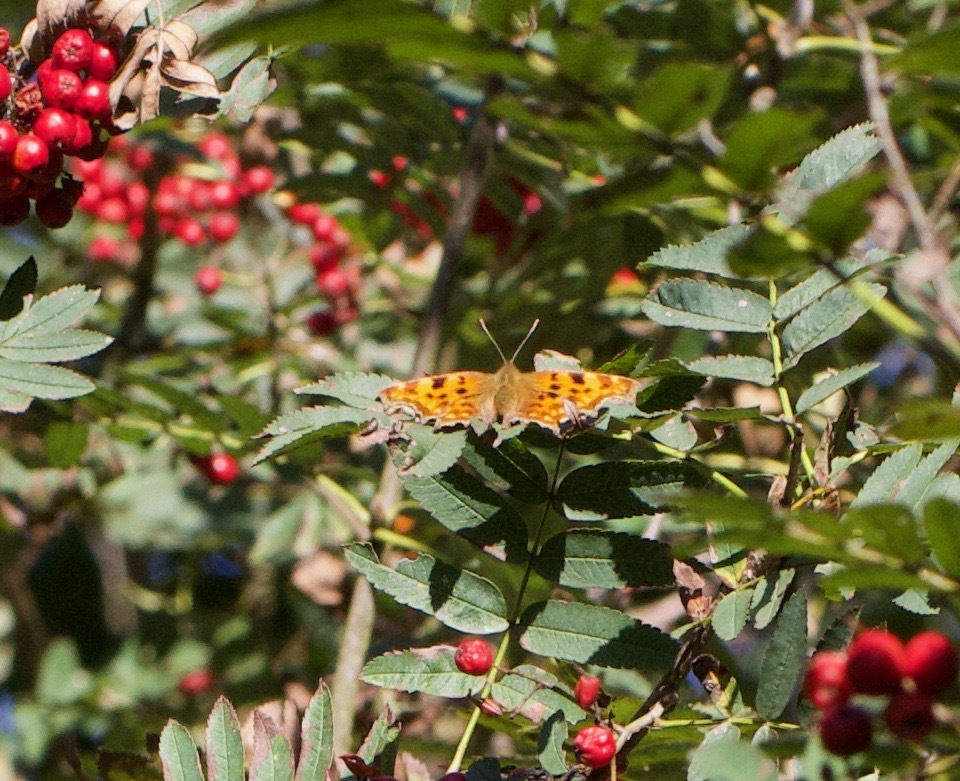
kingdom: Animalia
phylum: Arthropoda
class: Insecta
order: Lepidoptera
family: Nymphalidae
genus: Polygonia
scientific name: Polygonia c-album
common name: Comma
